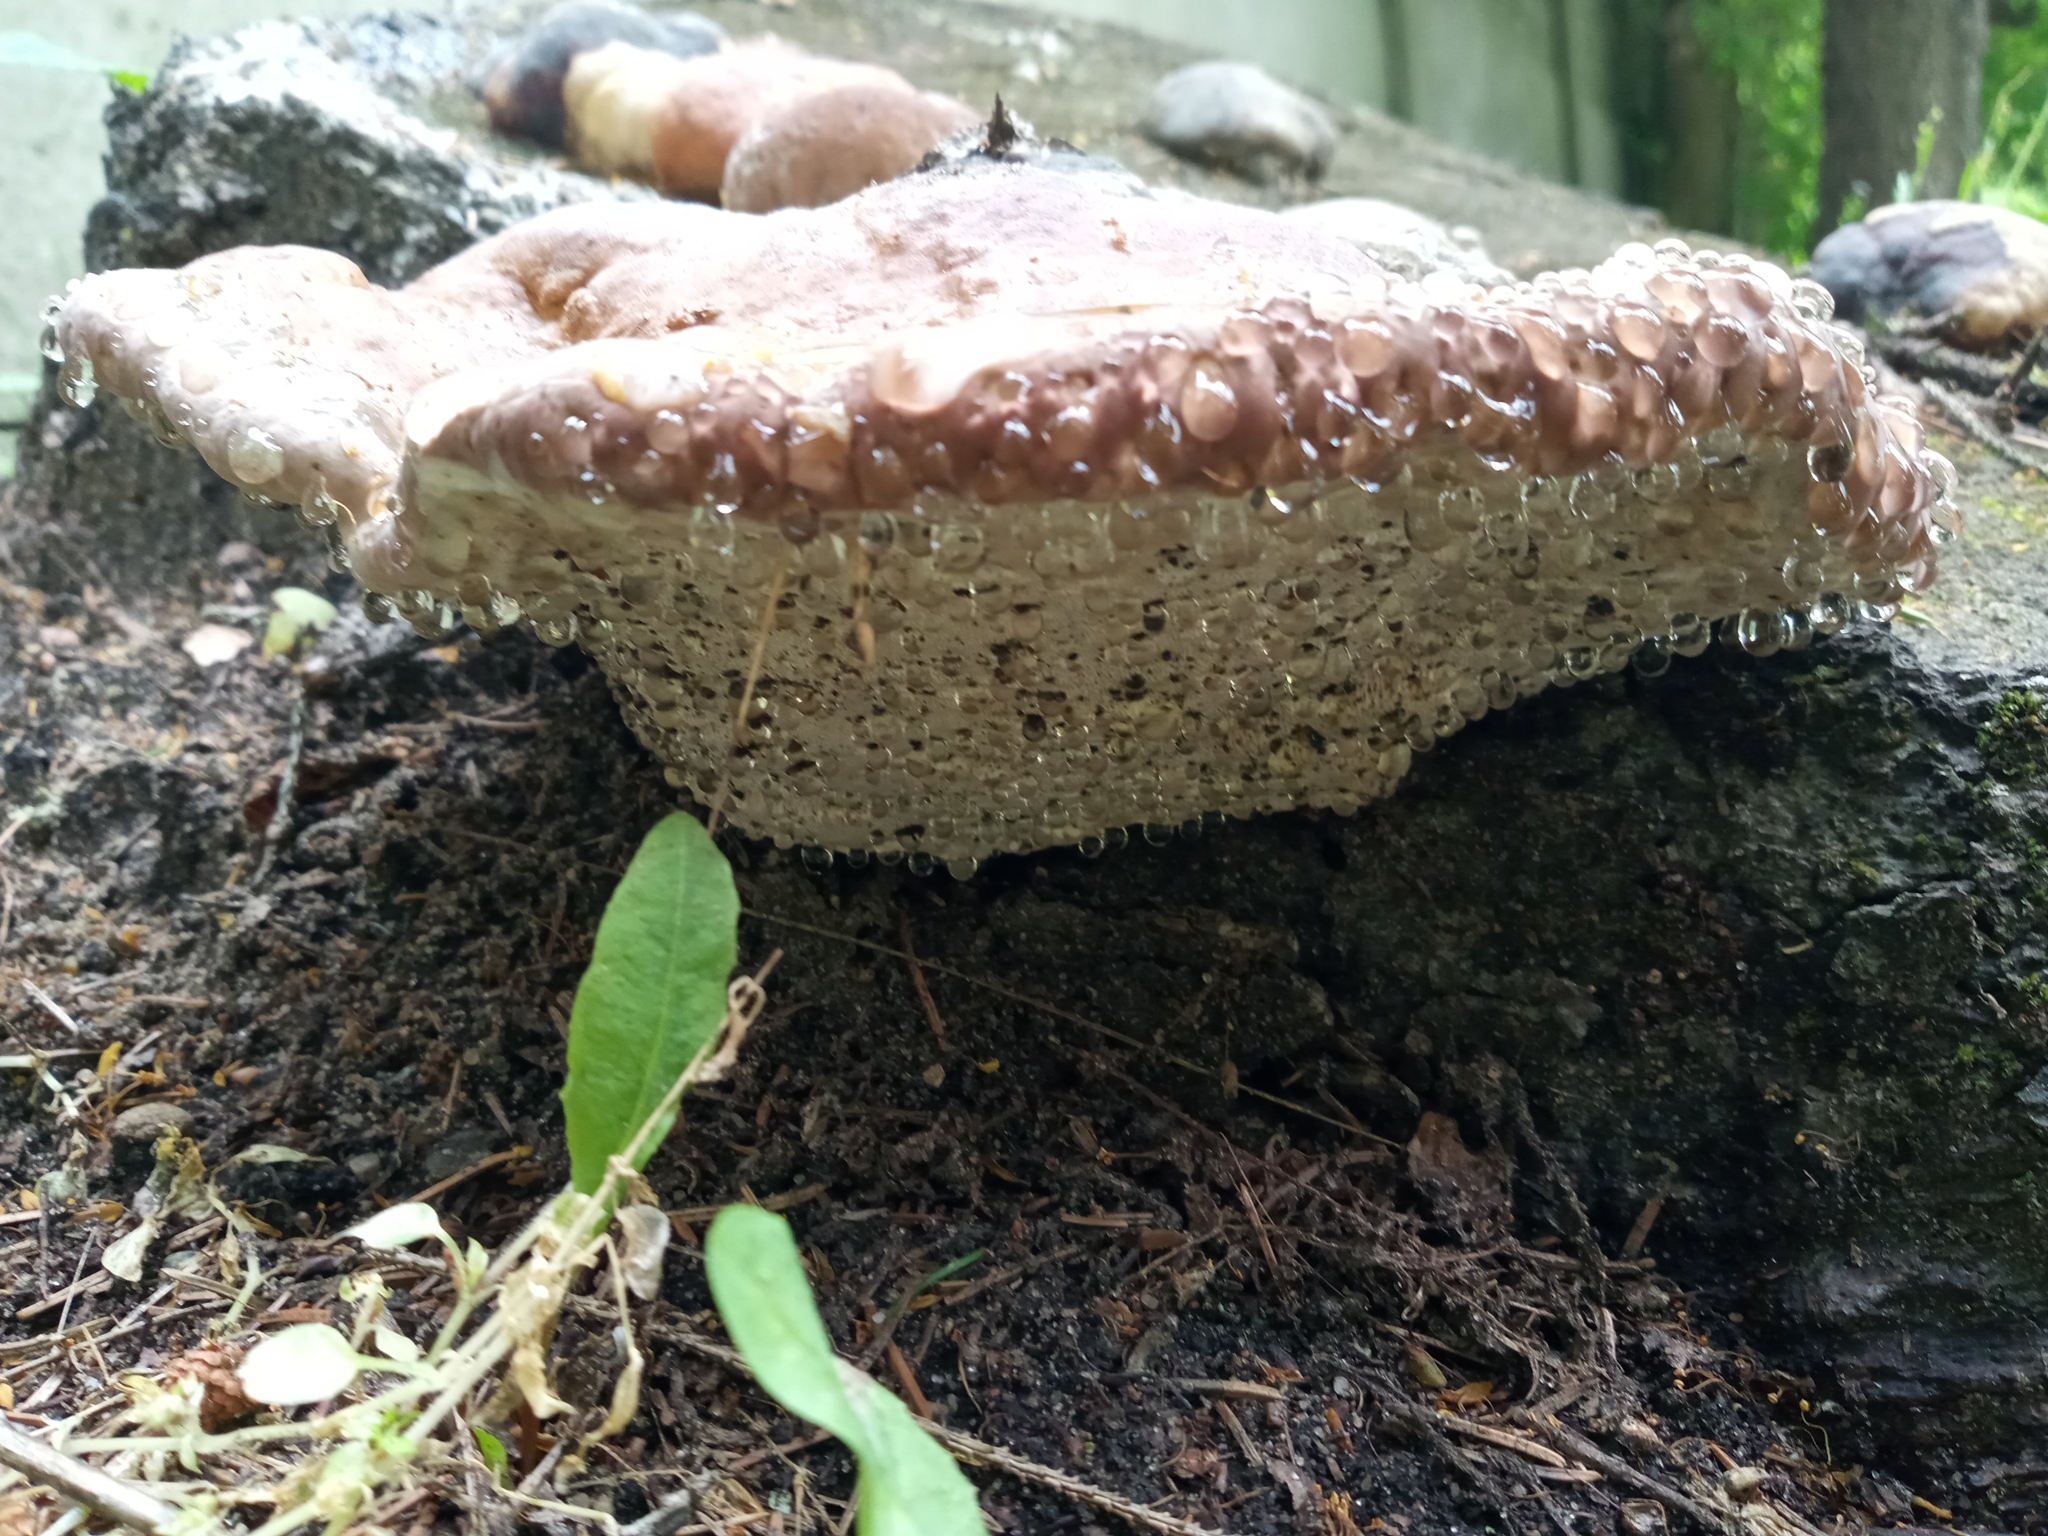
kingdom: Fungi
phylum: Basidiomycota
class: Agaricomycetes
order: Polyporales
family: Fomitopsidaceae
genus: Fomitopsis
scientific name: Fomitopsis pinicola
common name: Red-belted bracket
